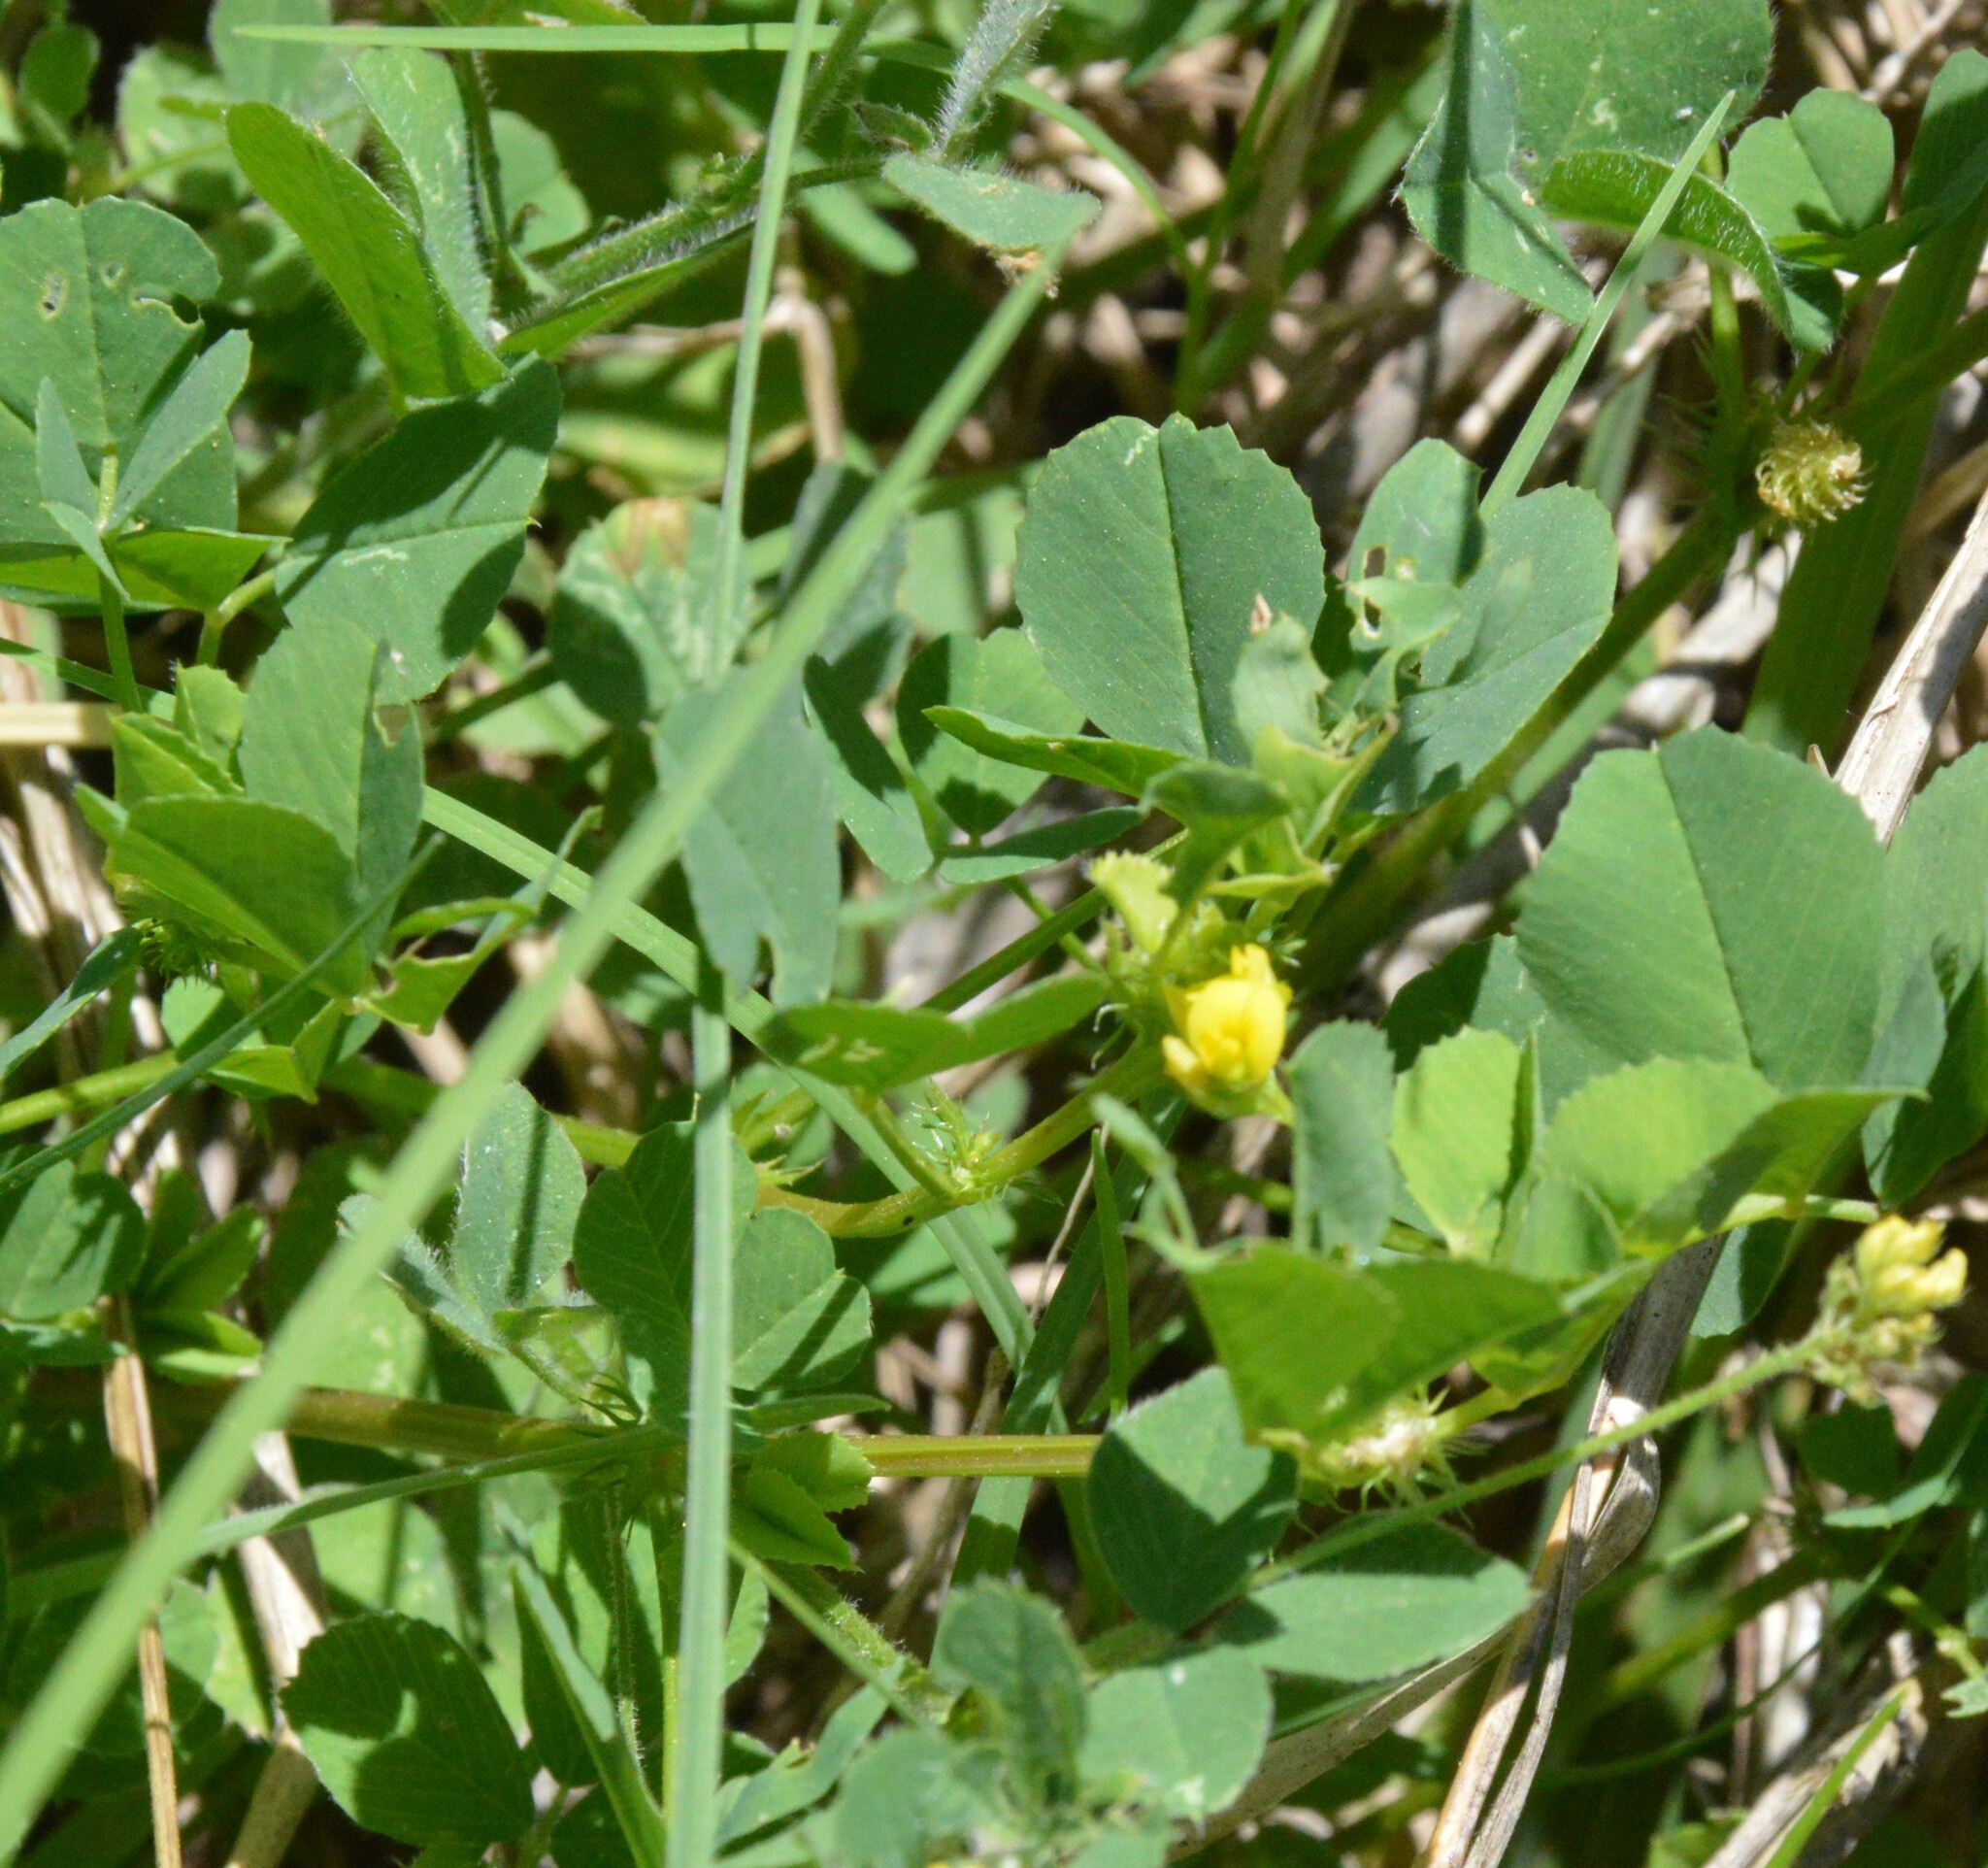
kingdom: Plantae
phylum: Tracheophyta
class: Magnoliopsida
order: Fabales
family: Fabaceae
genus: Medicago
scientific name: Medicago polymorpha
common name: Burclover
